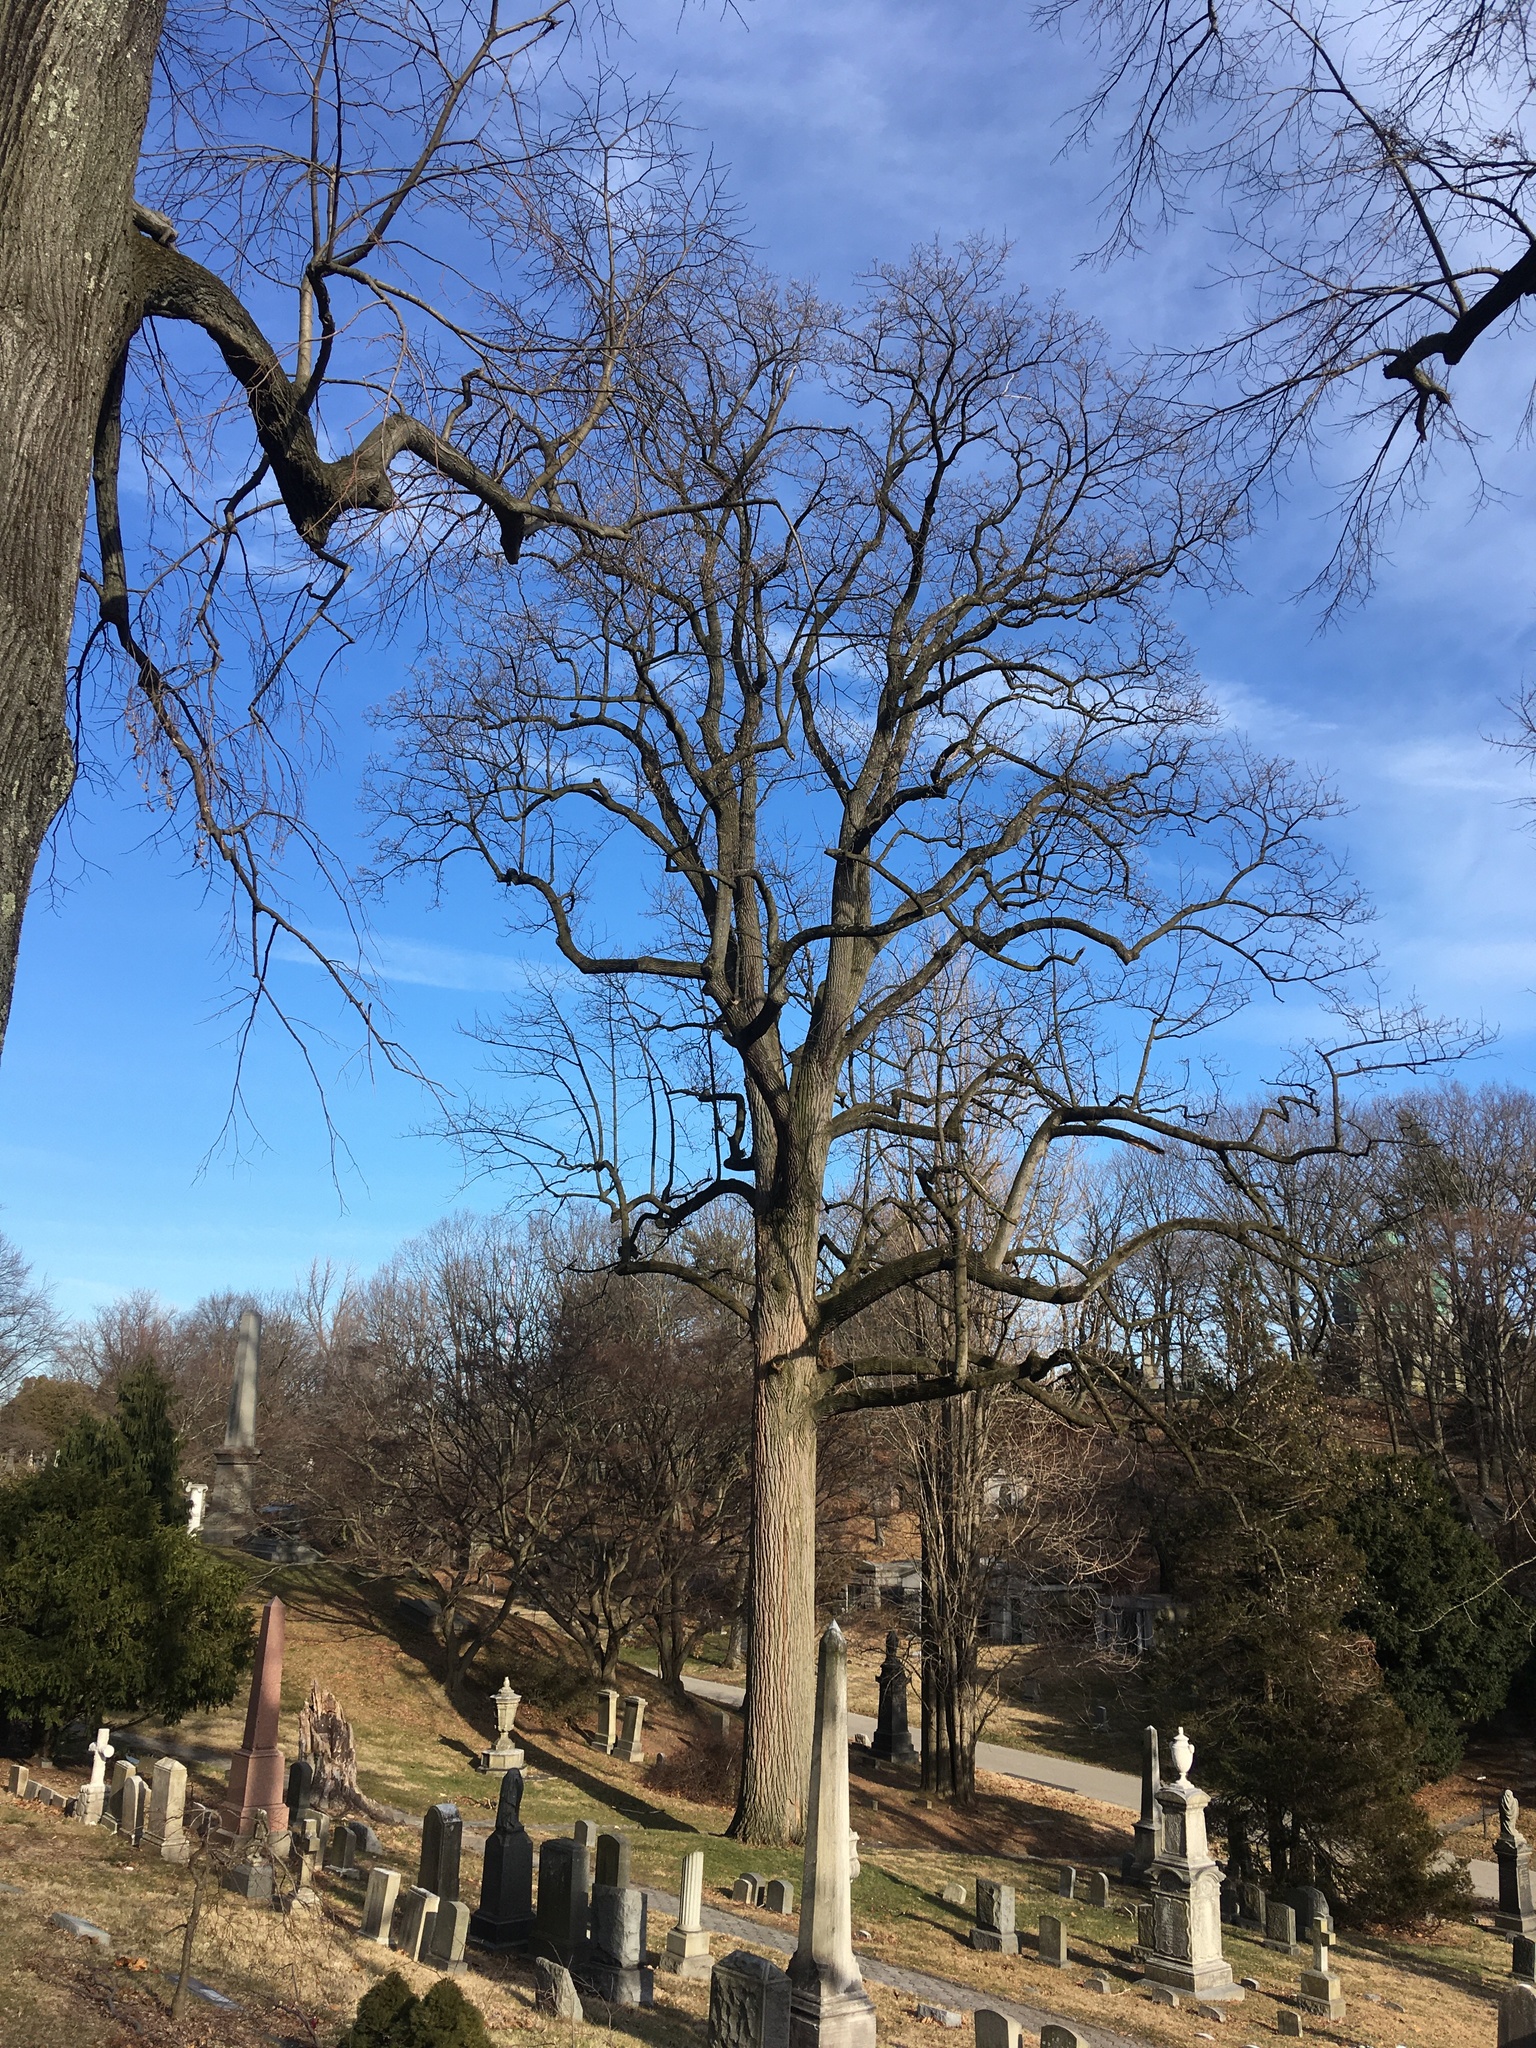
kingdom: Plantae
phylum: Tracheophyta
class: Magnoliopsida
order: Magnoliales
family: Magnoliaceae
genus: Liriodendron
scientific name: Liriodendron tulipifera
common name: Tulip tree
